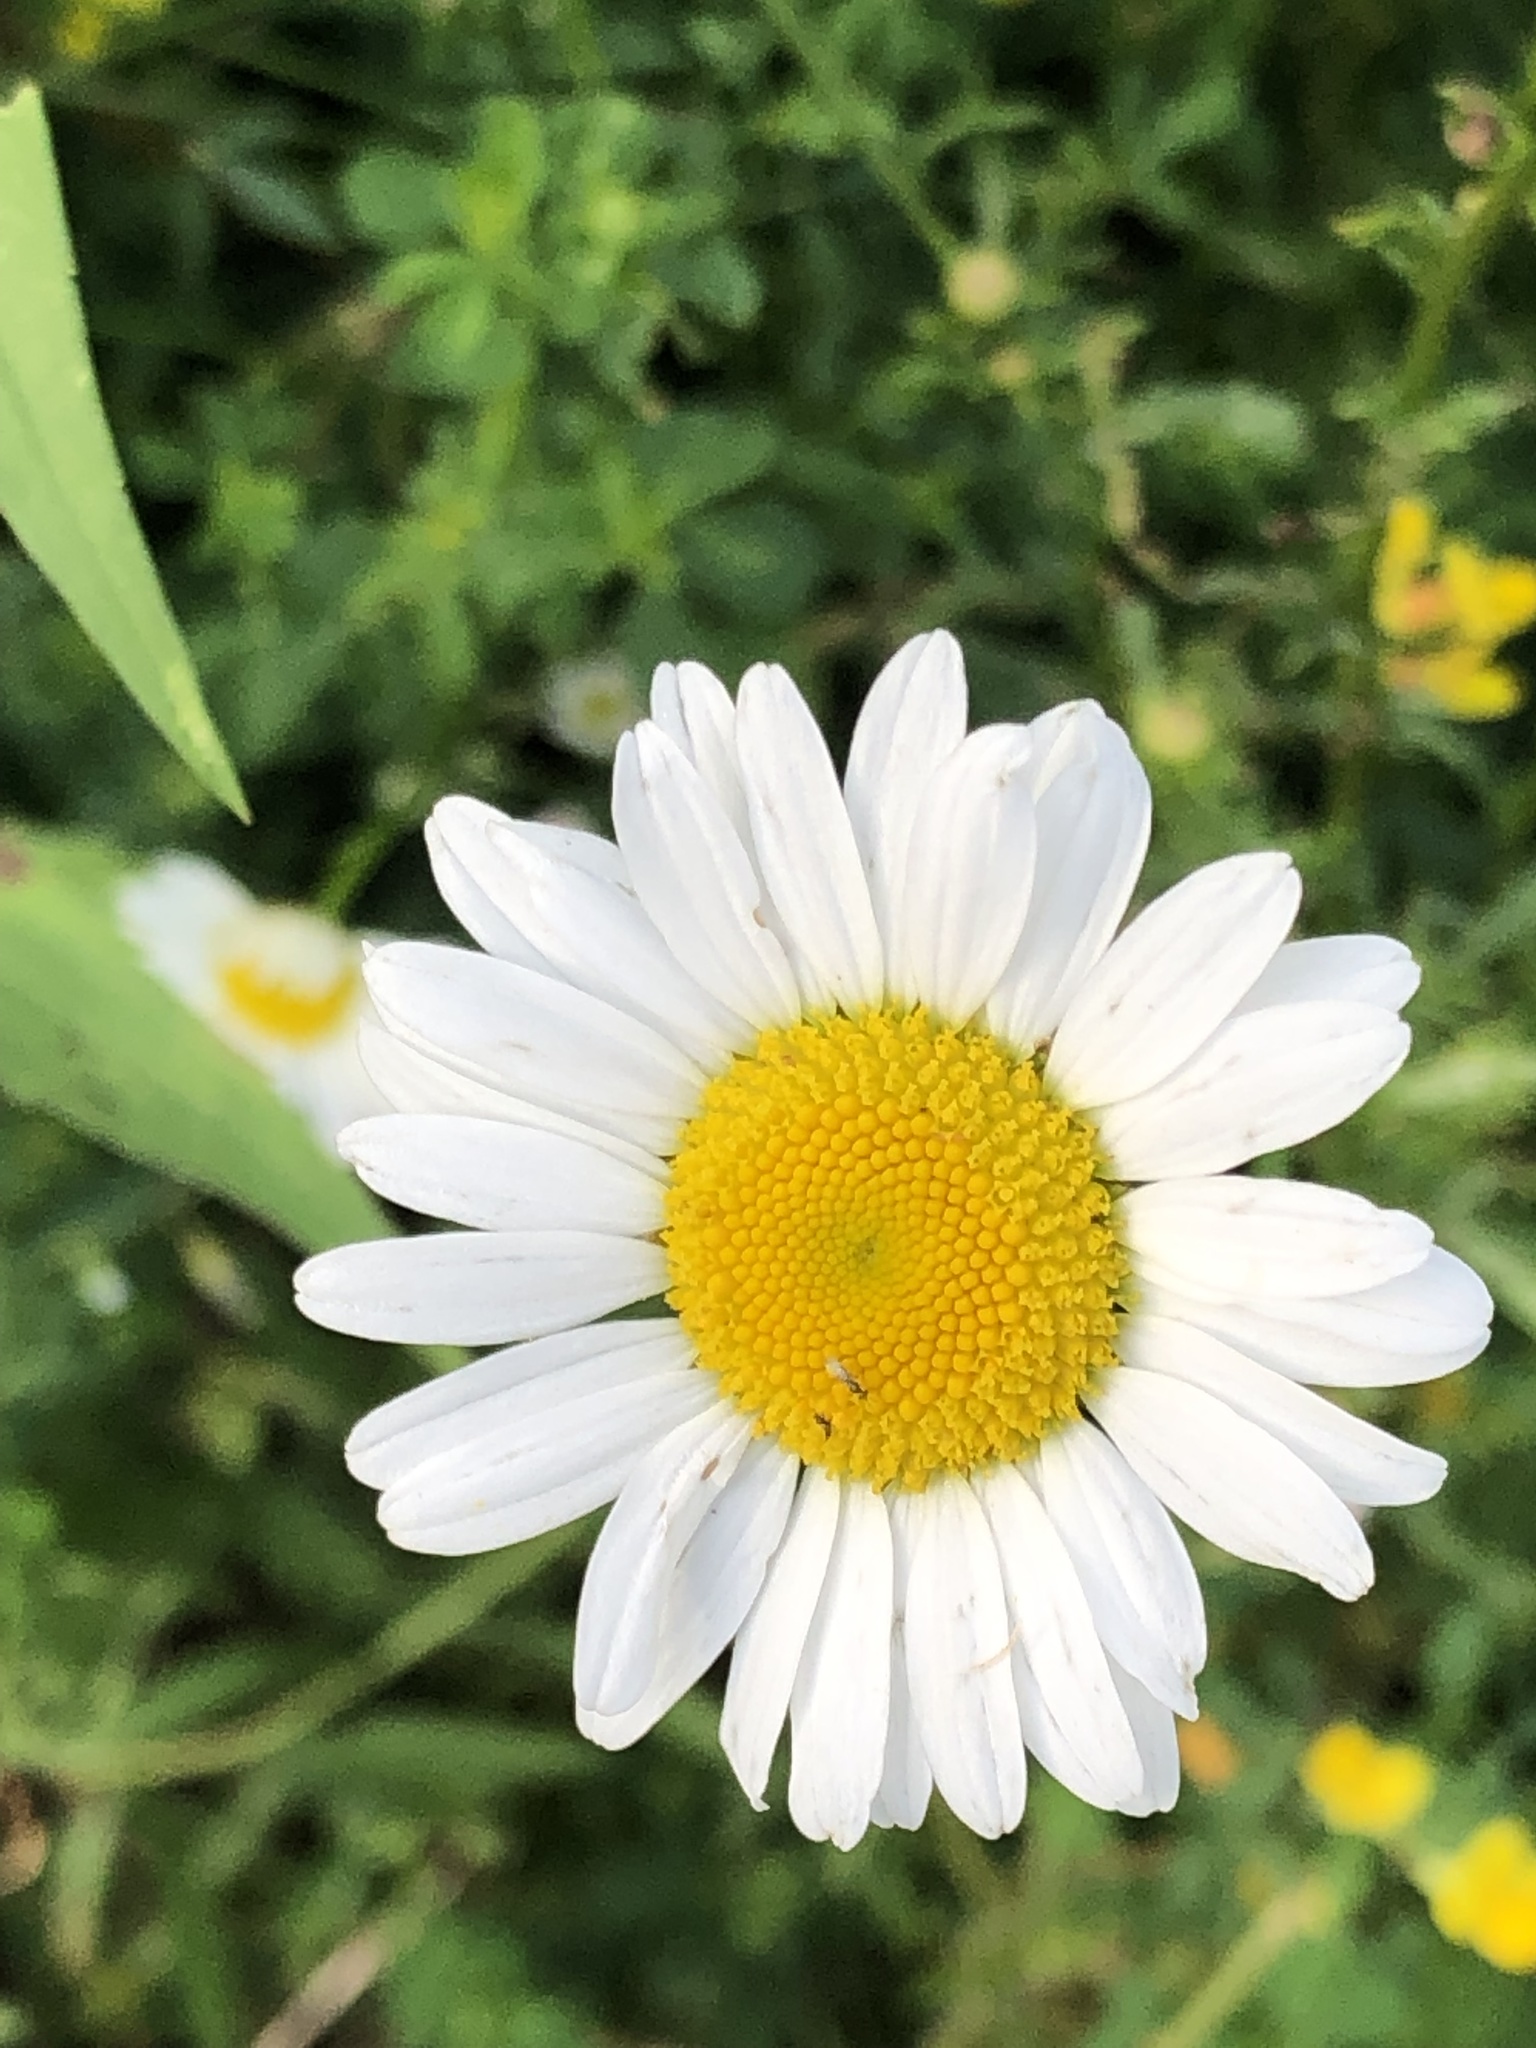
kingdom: Plantae
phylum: Tracheophyta
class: Magnoliopsida
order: Asterales
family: Asteraceae
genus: Leucanthemum
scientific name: Leucanthemum vulgare
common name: Oxeye daisy
